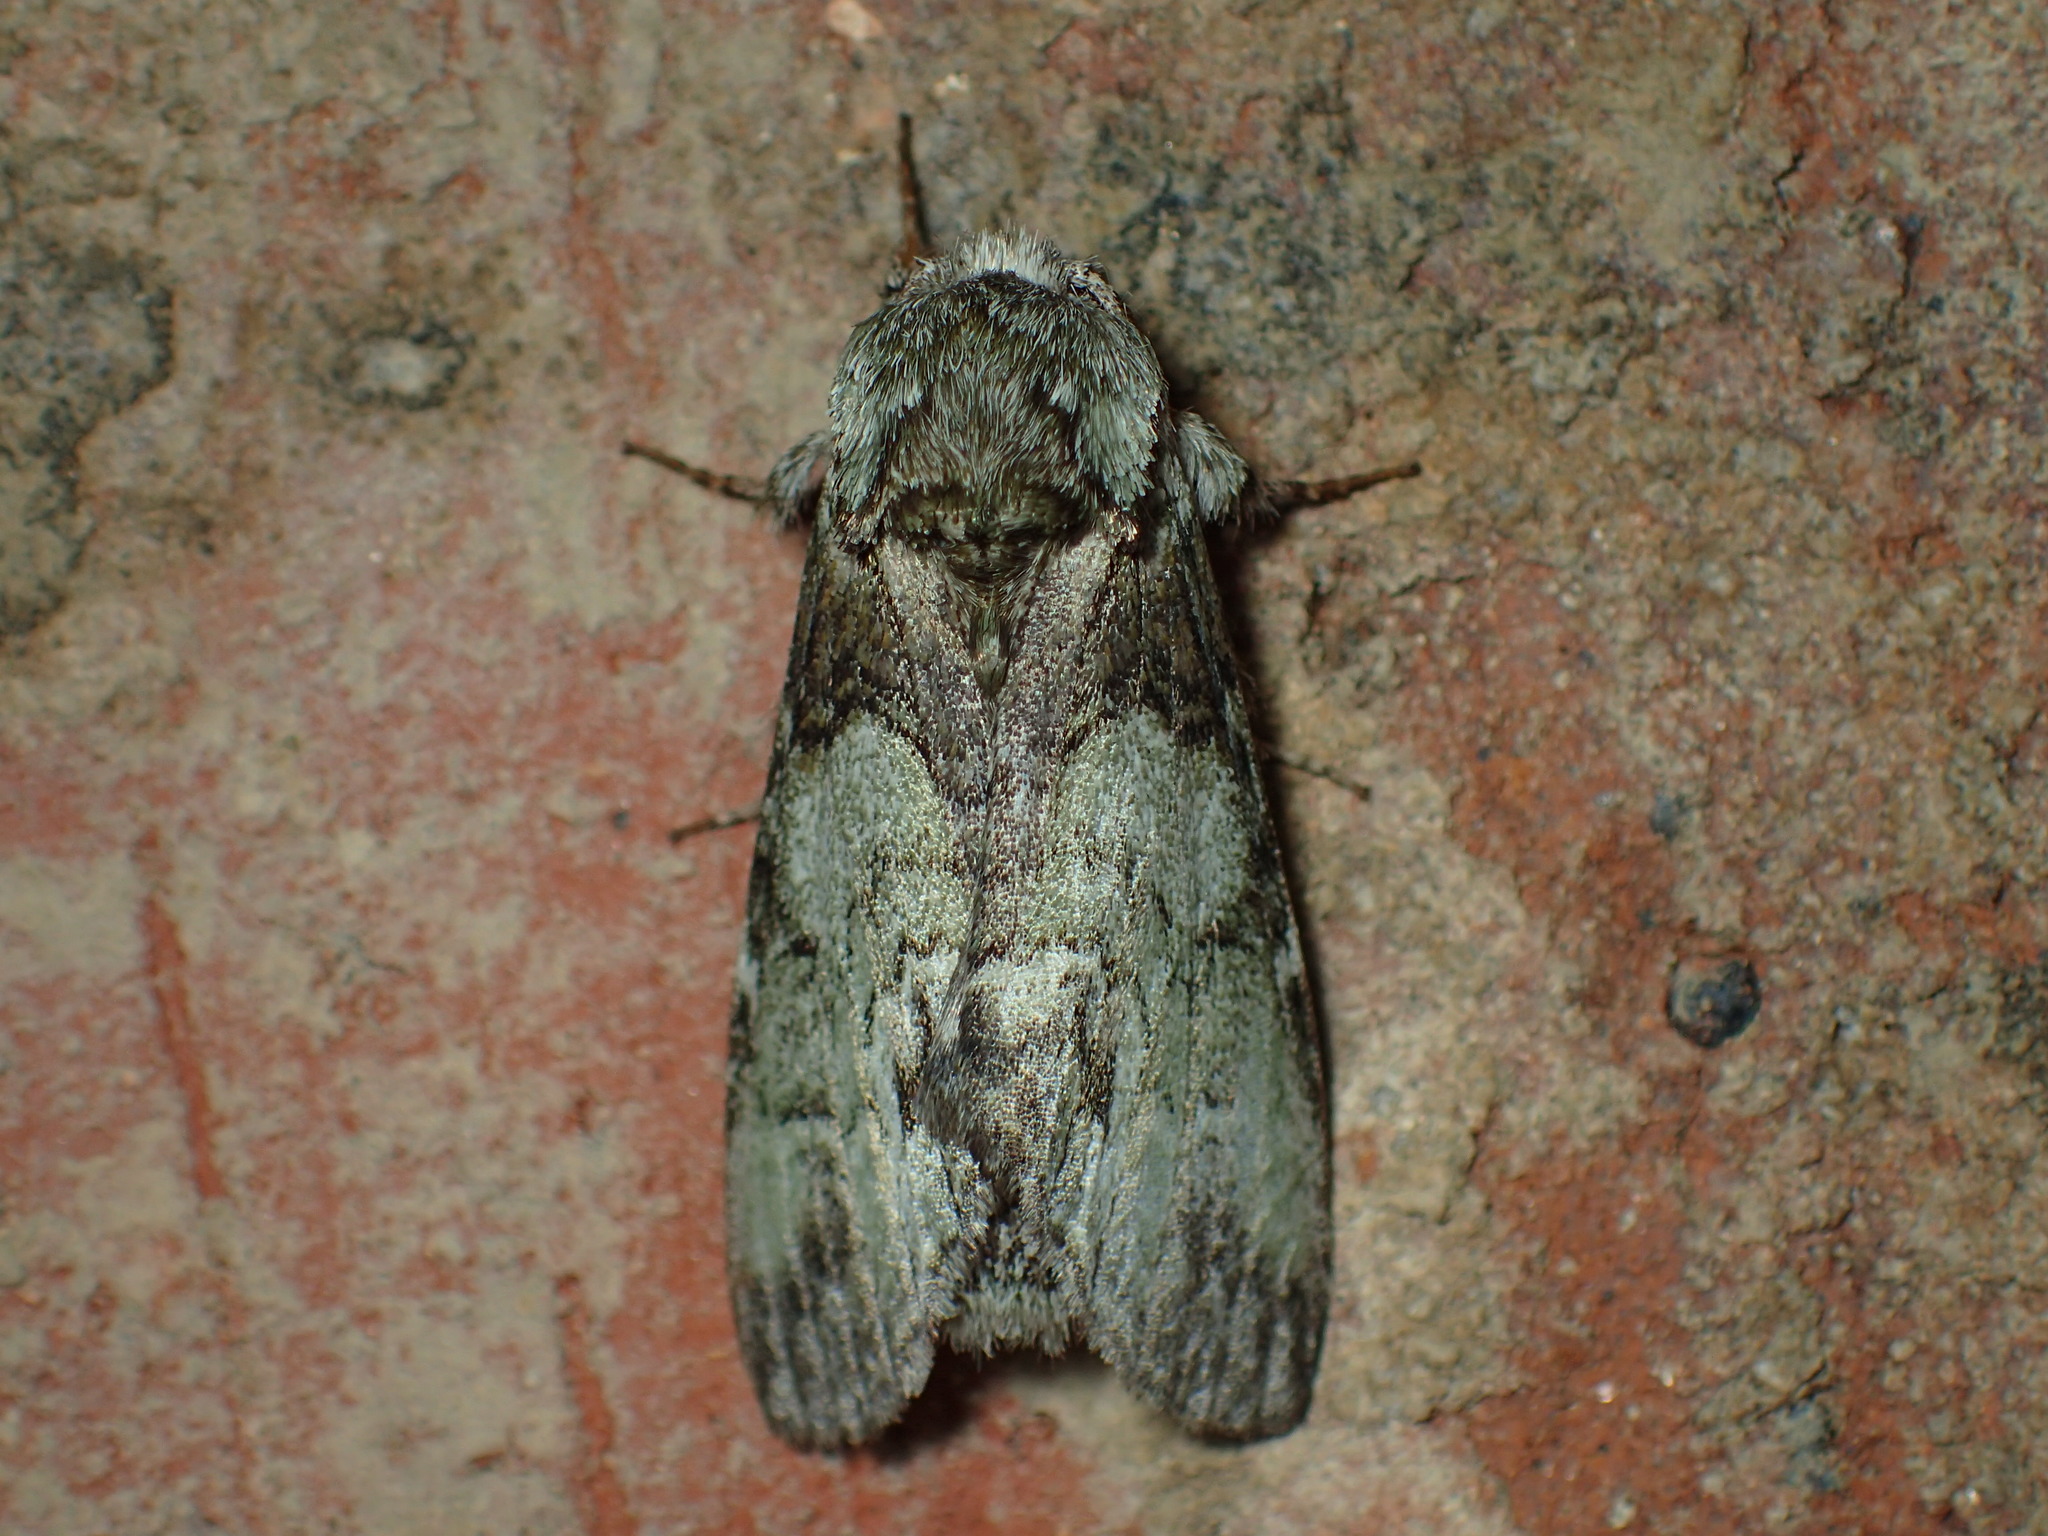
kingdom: Animalia
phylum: Arthropoda
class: Insecta
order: Lepidoptera
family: Notodontidae
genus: Macrurocampa
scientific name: Macrurocampa marthesia
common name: Mottled prominent
